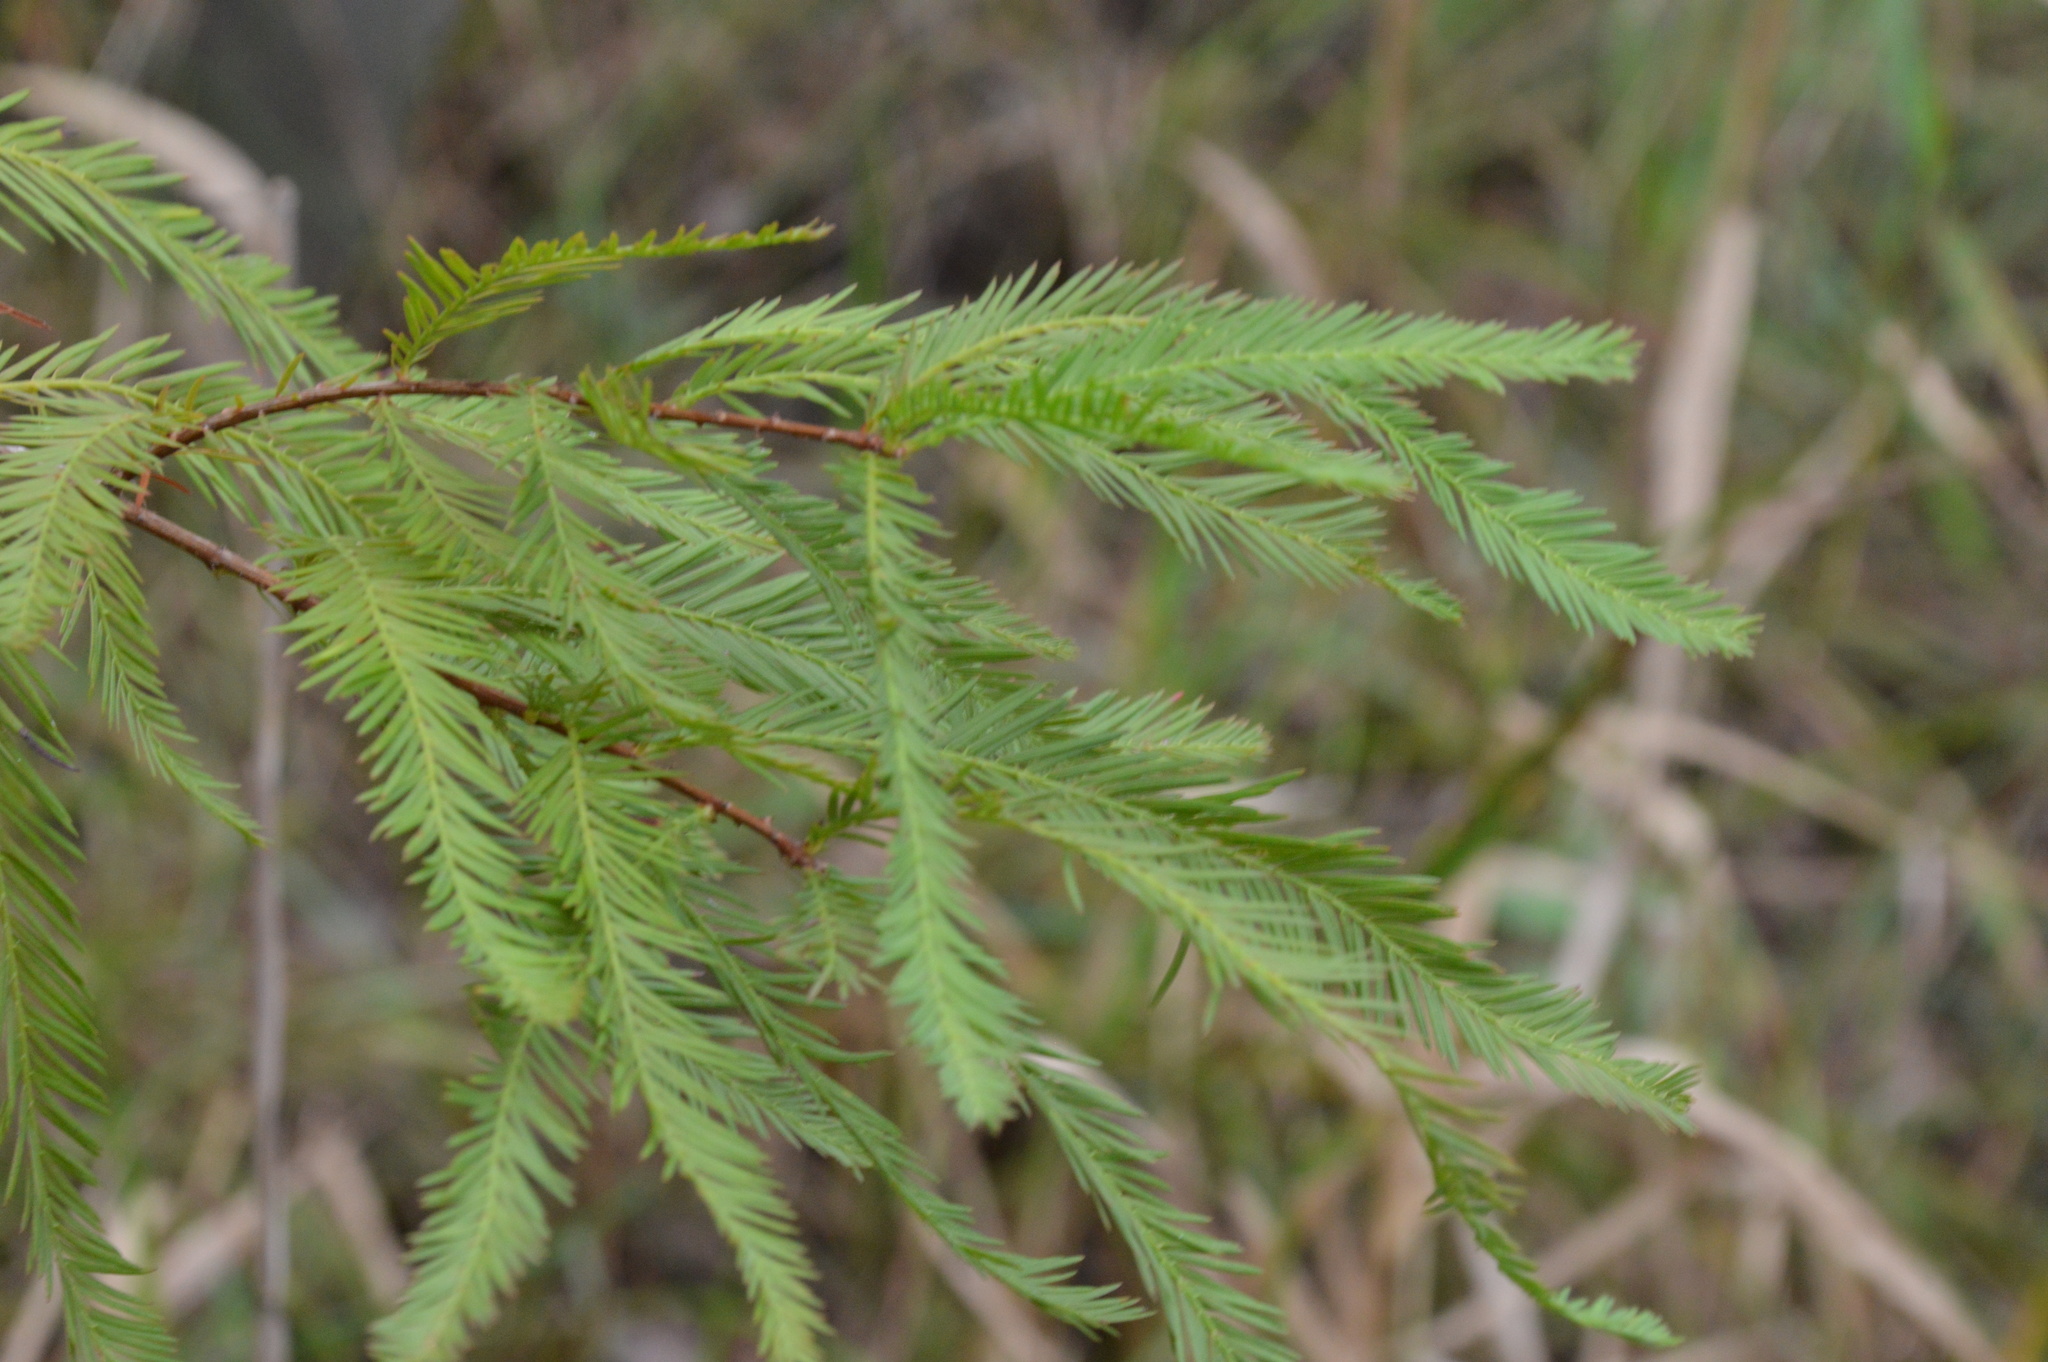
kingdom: Plantae
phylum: Tracheophyta
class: Pinopsida
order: Pinales
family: Cupressaceae
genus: Taxodium
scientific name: Taxodium distichum
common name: Bald cypress
